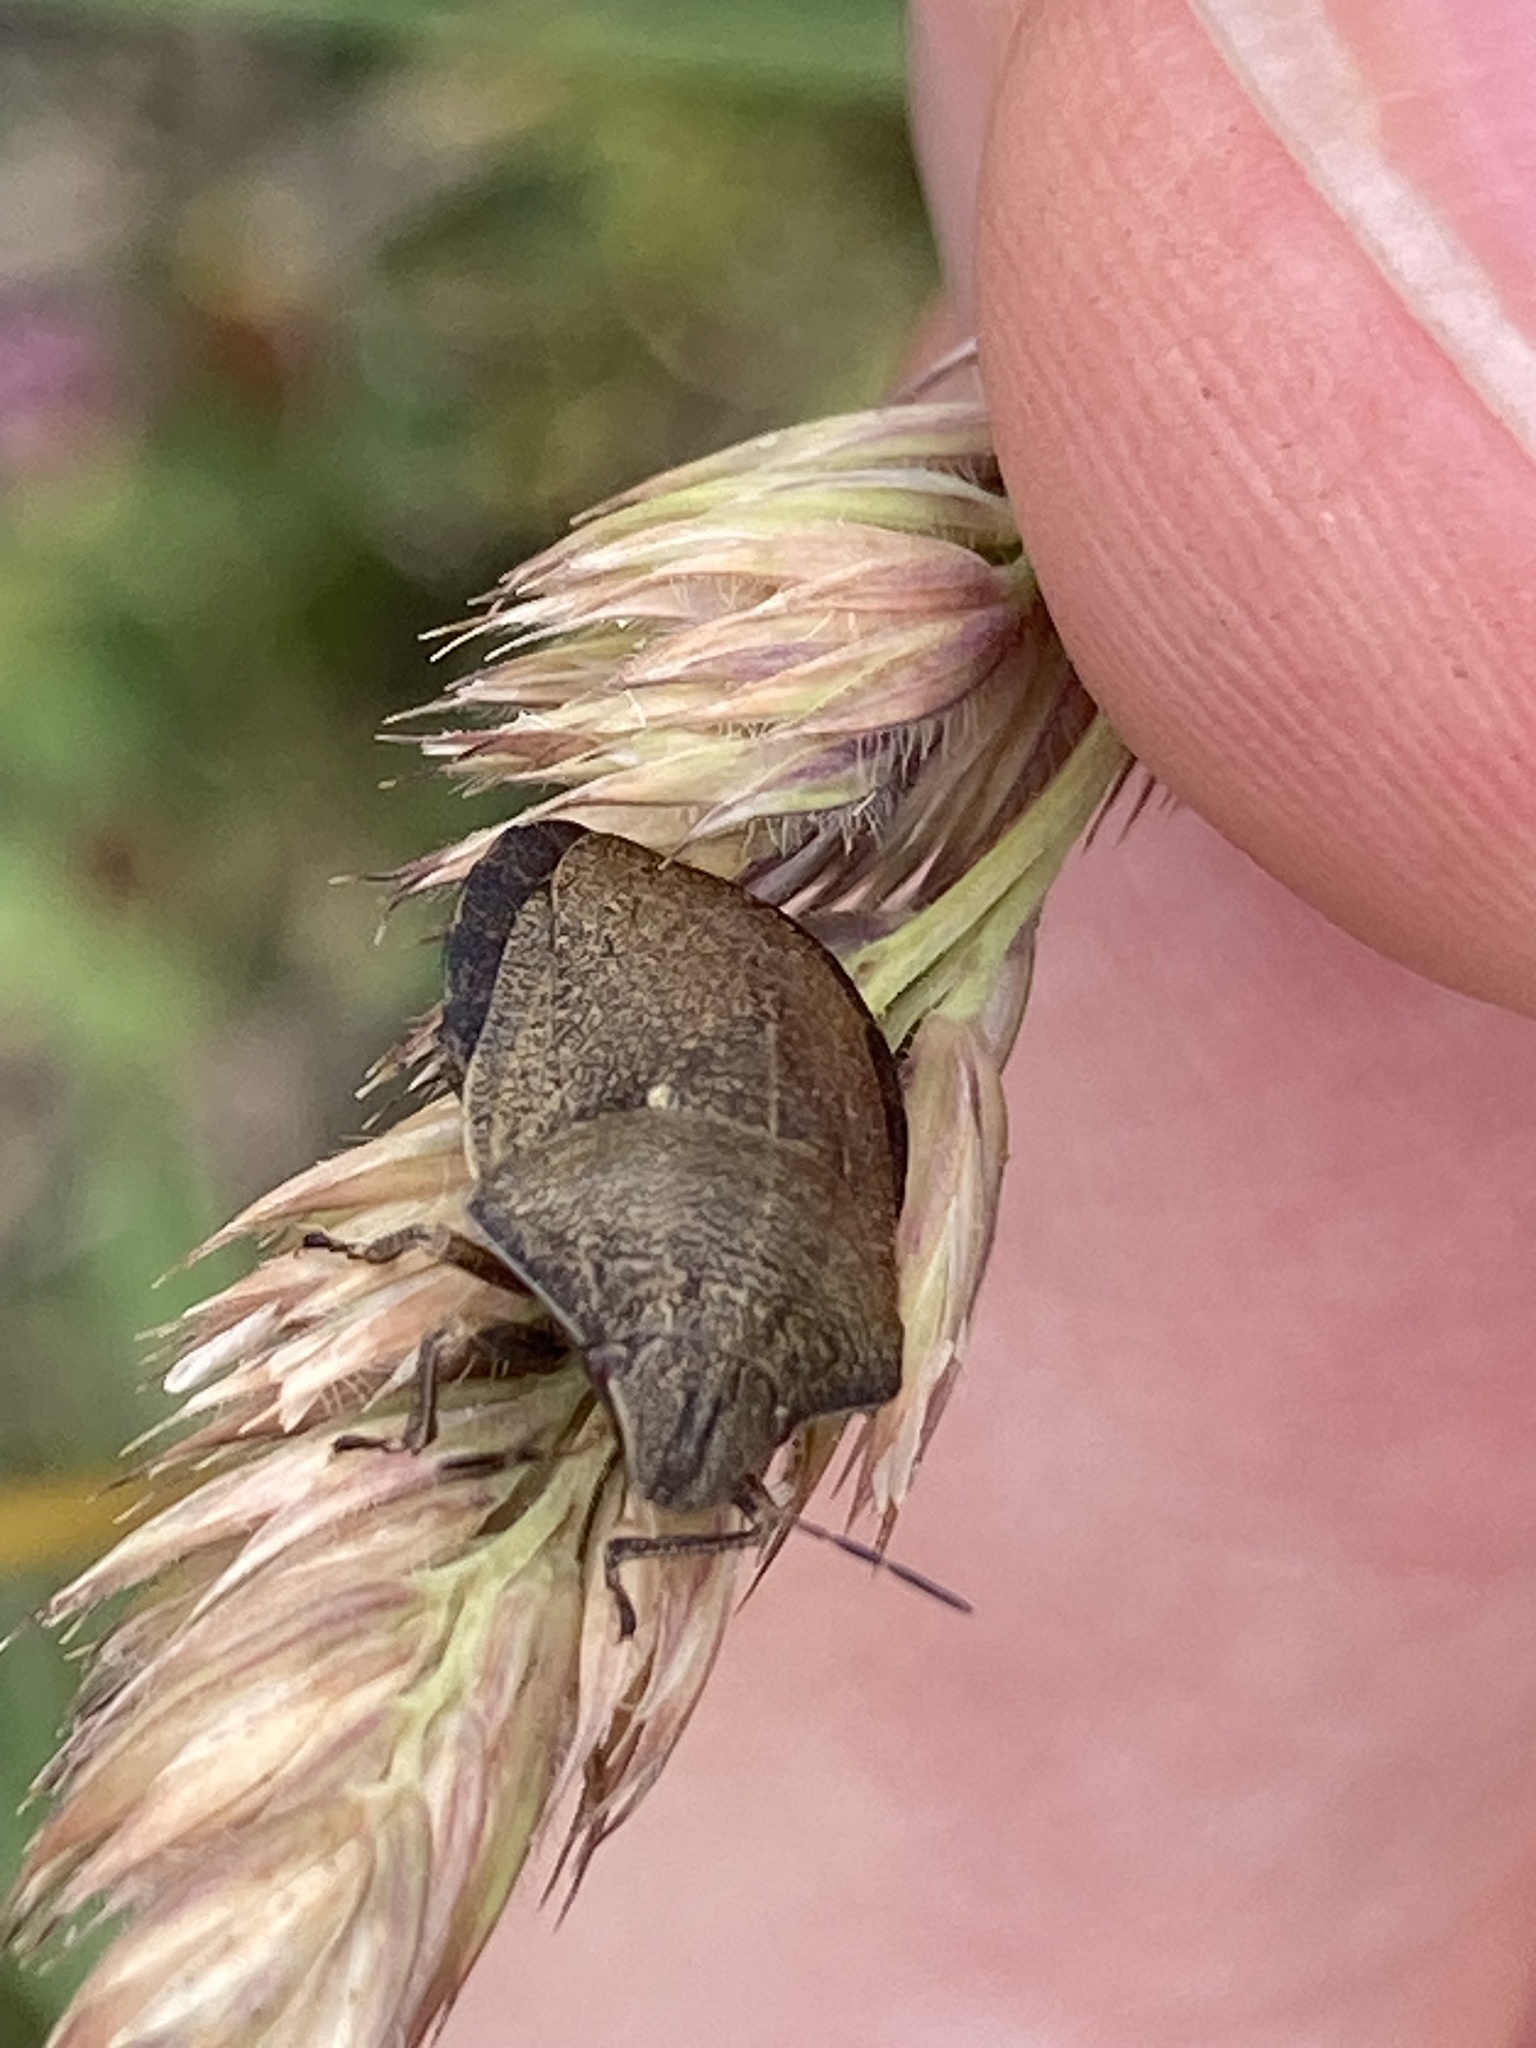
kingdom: Animalia
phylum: Arthropoda
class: Insecta
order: Hemiptera
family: Scutelleridae
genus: Eurygaster
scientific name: Eurygaster testudinaria
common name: Tortoise bug
